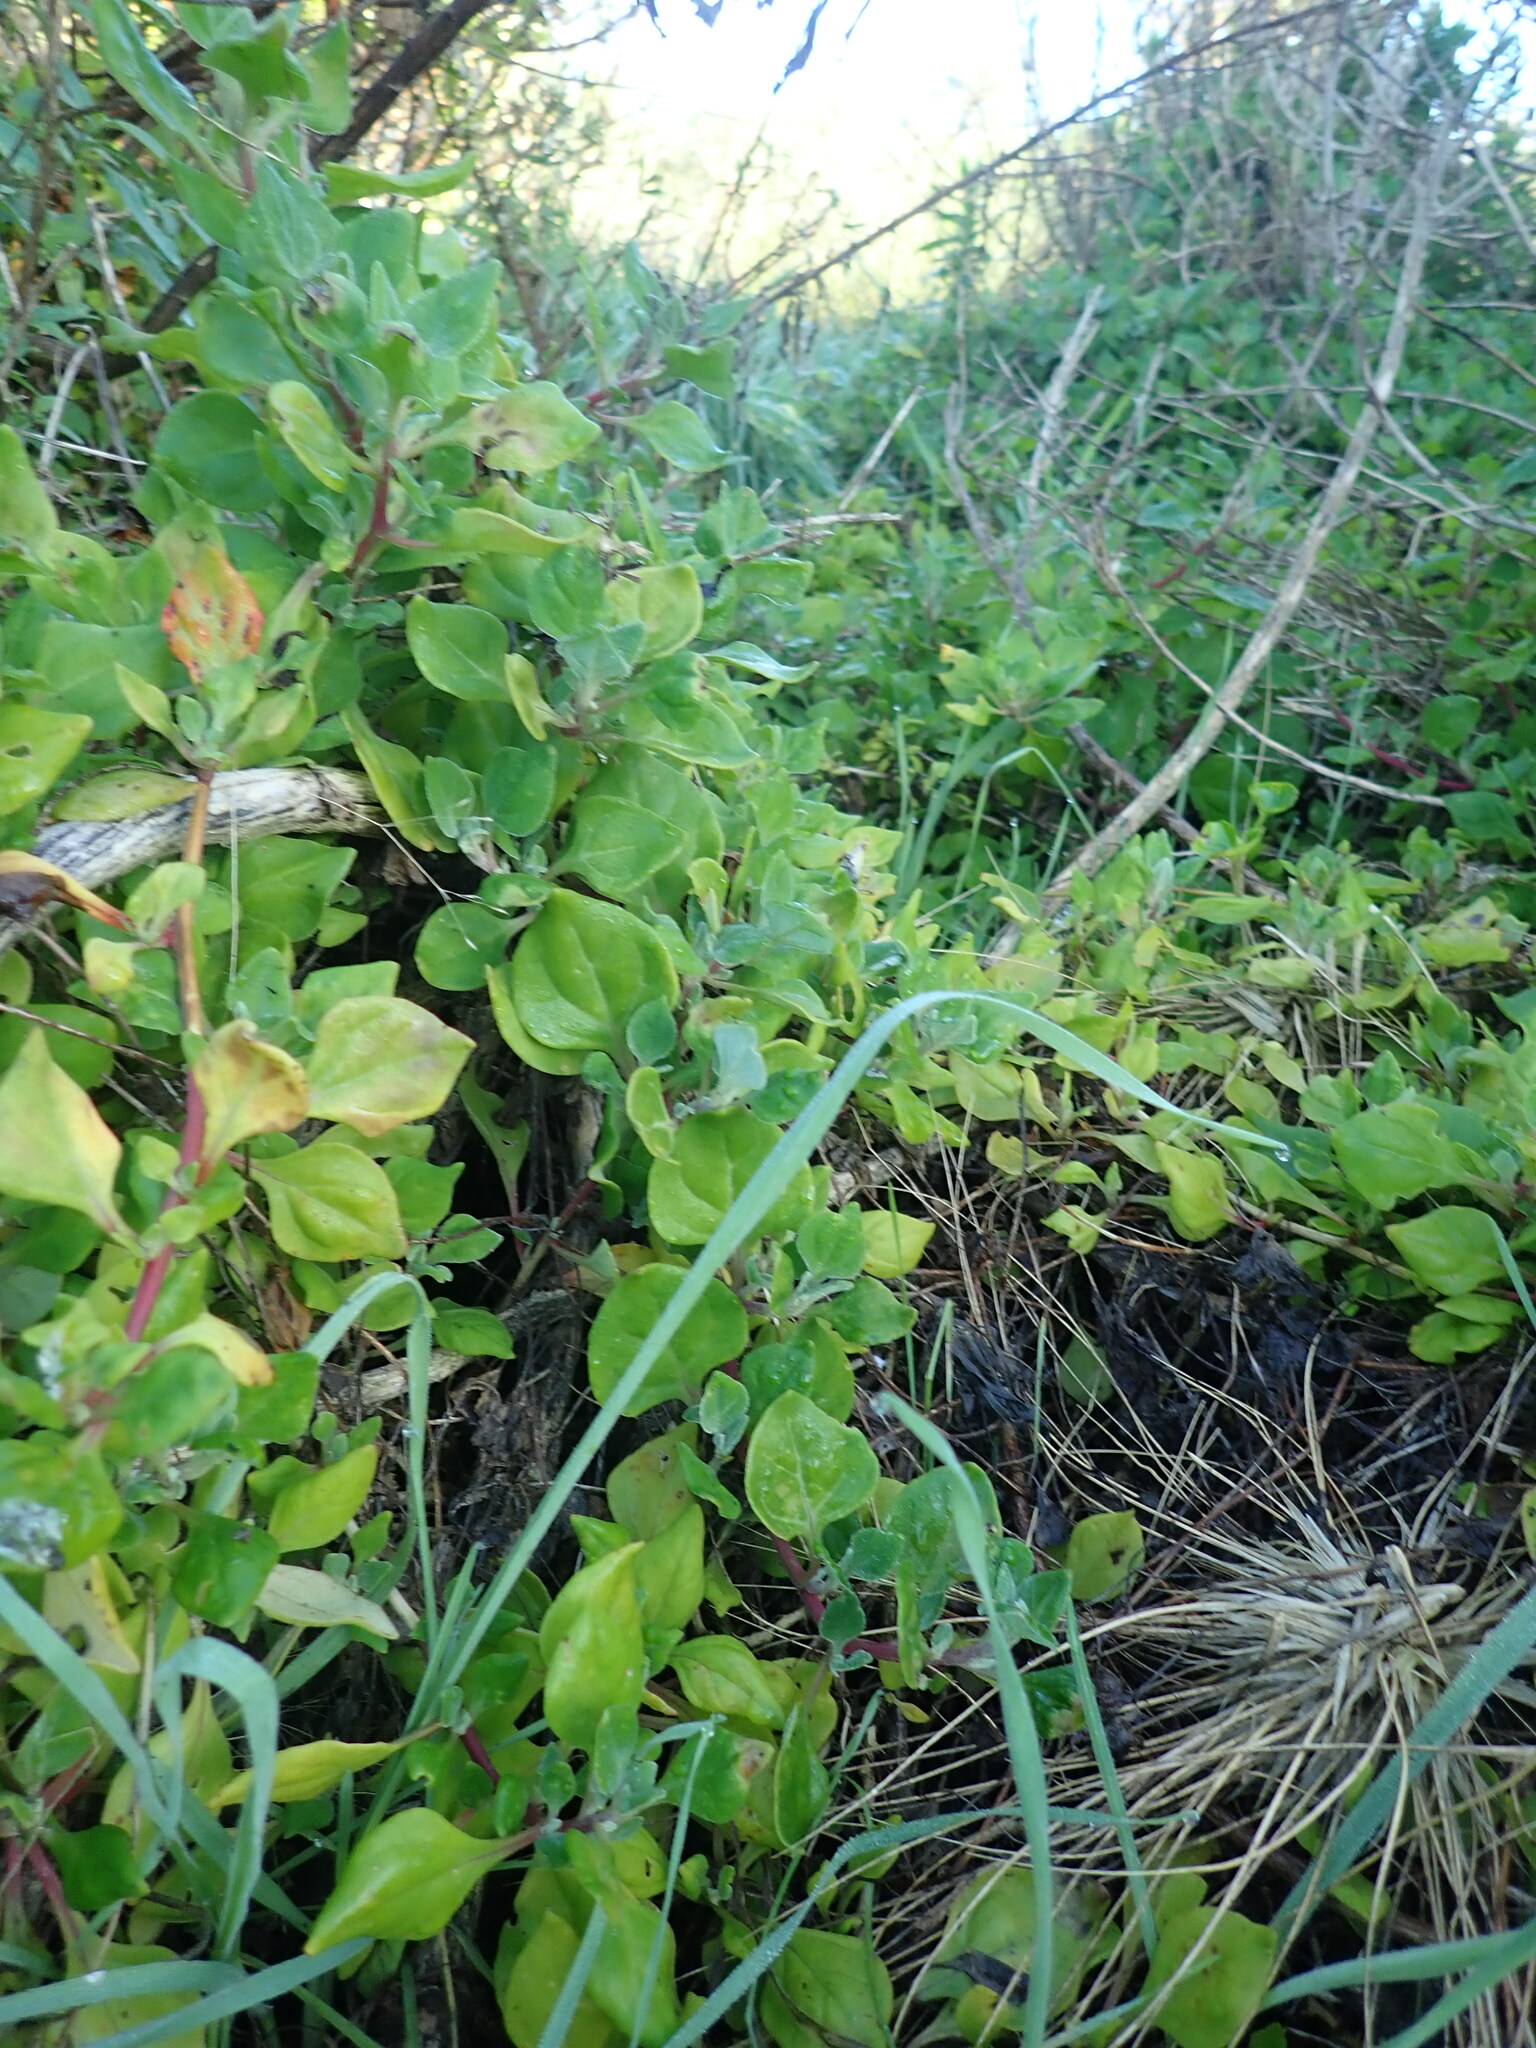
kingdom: Plantae
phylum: Tracheophyta
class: Magnoliopsida
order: Caryophyllales
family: Aizoaceae
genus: Tetragonia
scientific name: Tetragonia implexicoma
